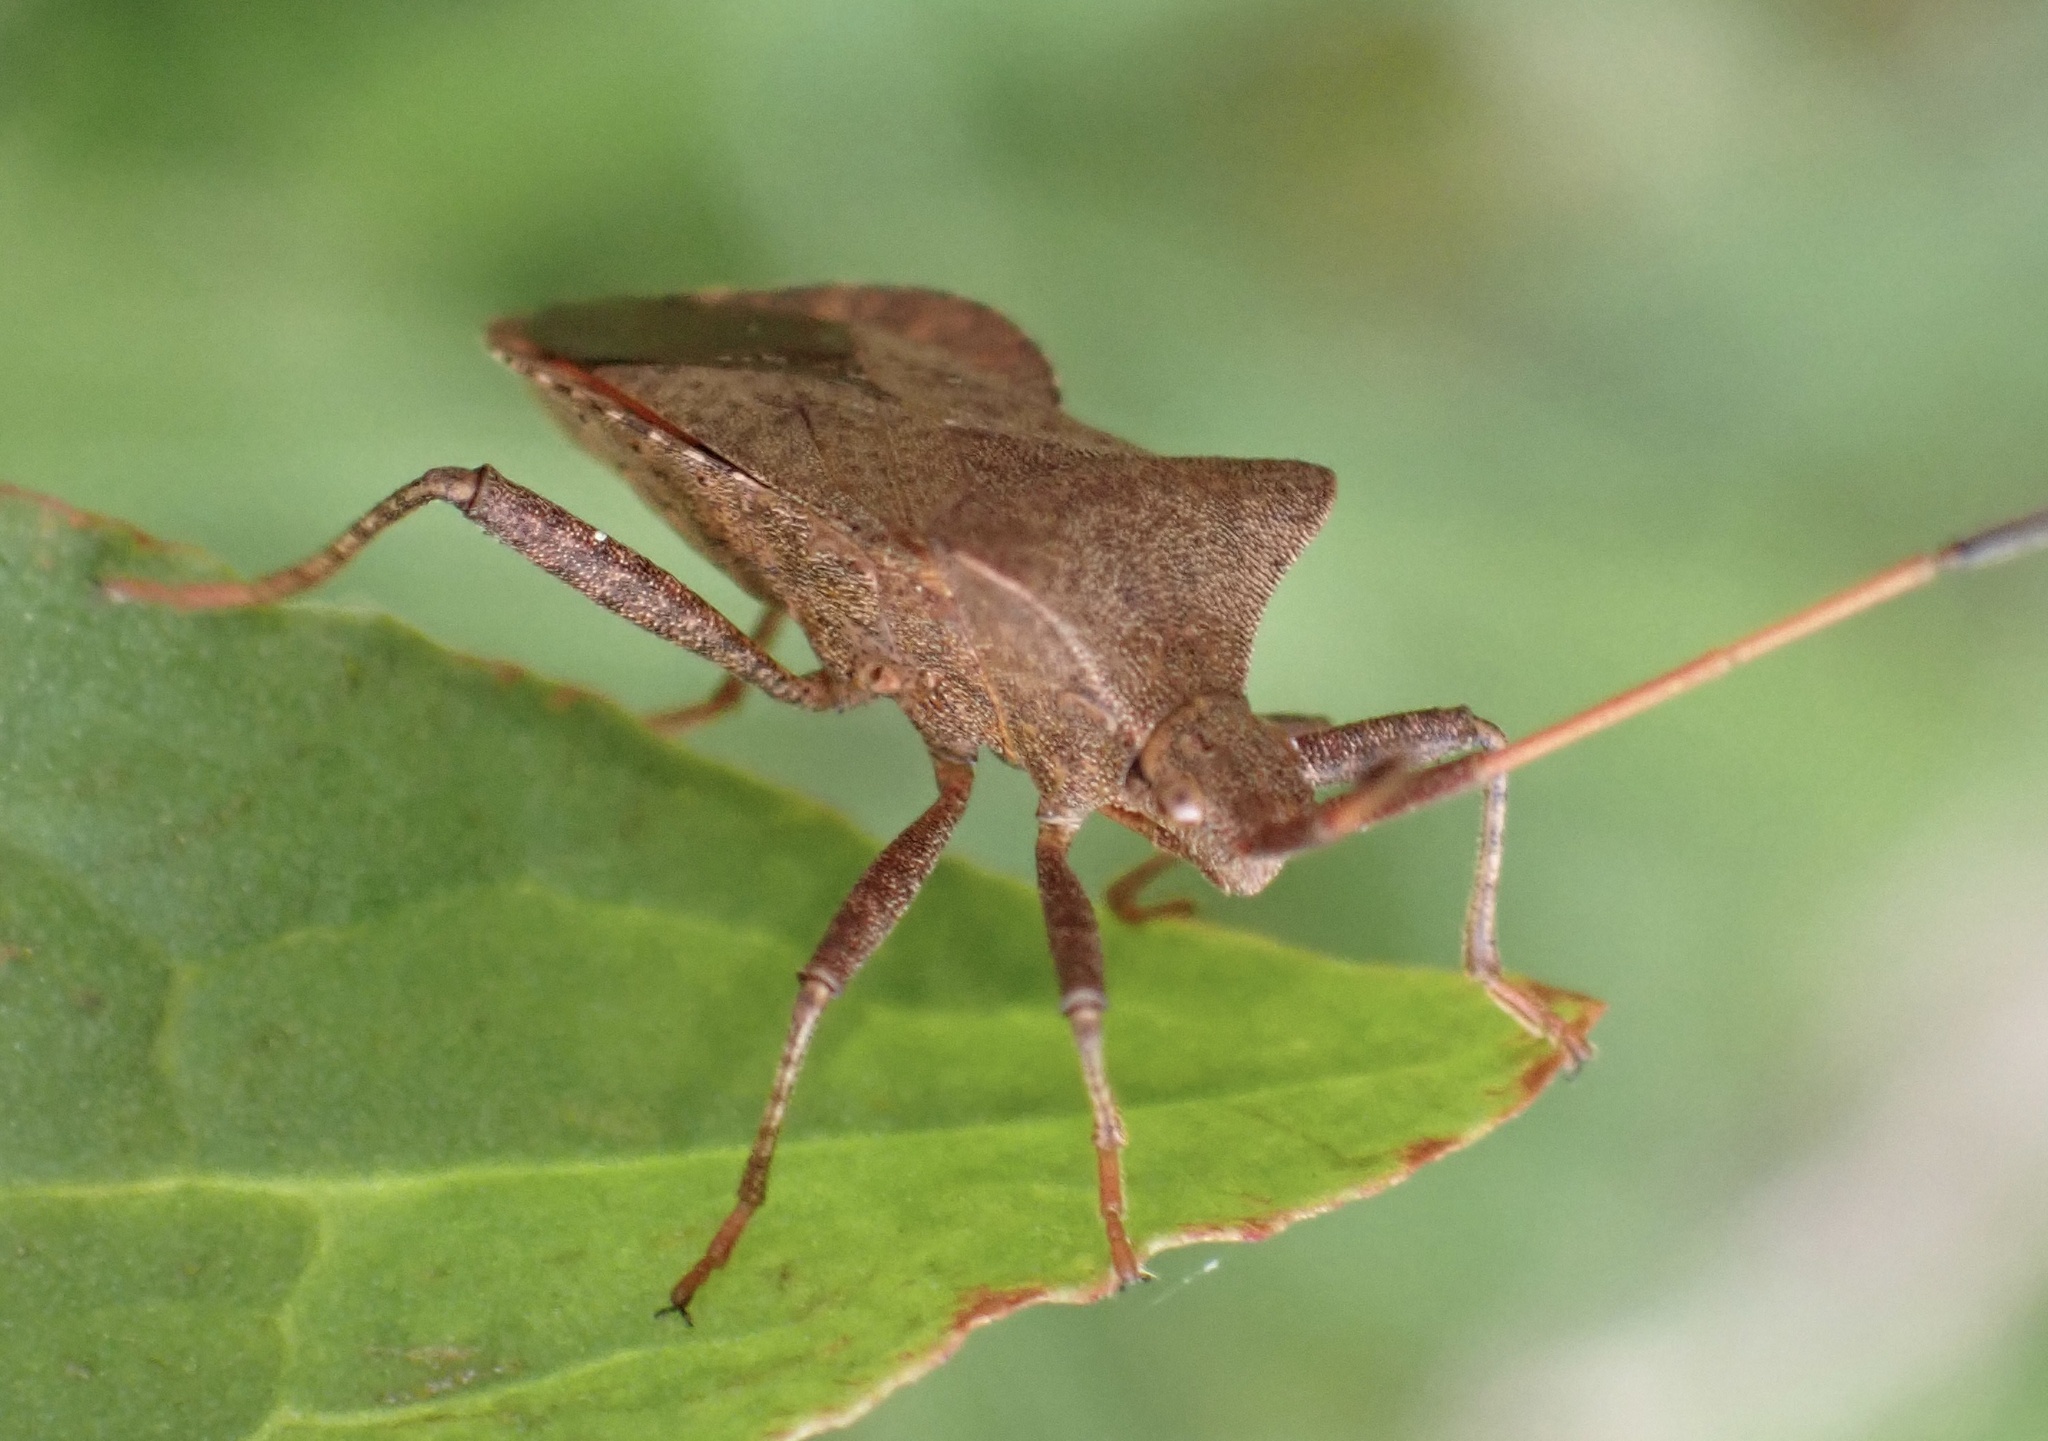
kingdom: Animalia
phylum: Arthropoda
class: Insecta
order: Hemiptera
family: Coreidae
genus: Coreus
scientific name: Coreus marginatus
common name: Dock bug
